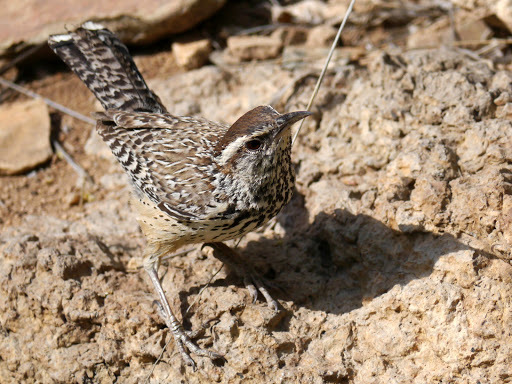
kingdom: Animalia
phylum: Chordata
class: Aves
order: Passeriformes
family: Troglodytidae
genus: Campylorhynchus
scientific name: Campylorhynchus brunneicapillus
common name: Cactus wren
